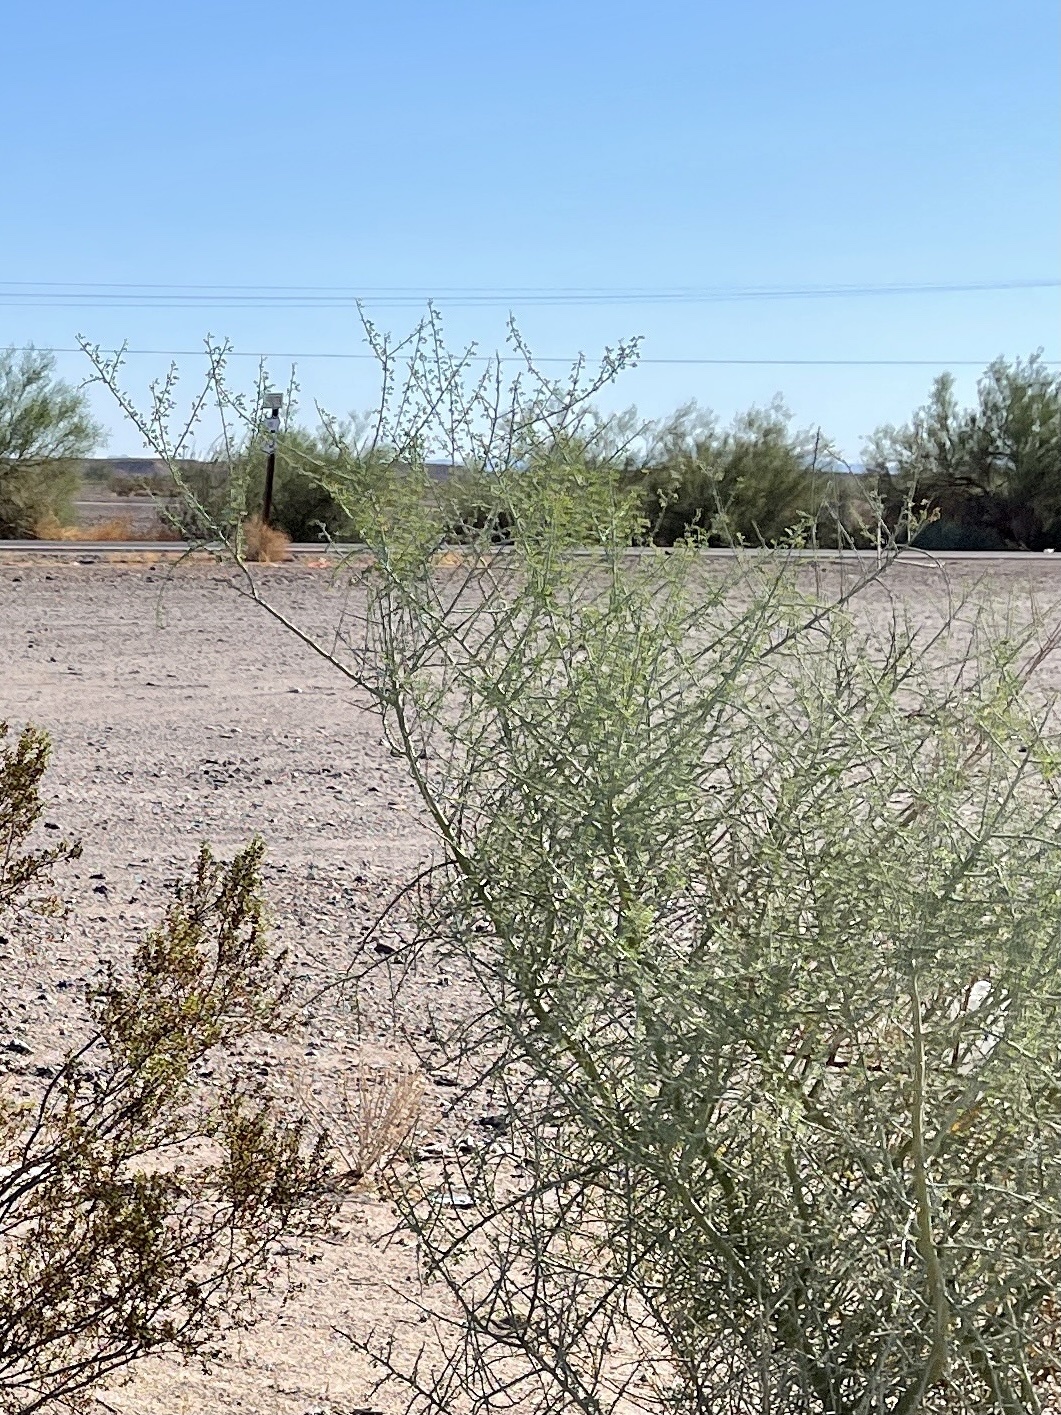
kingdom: Plantae
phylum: Tracheophyta
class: Magnoliopsida
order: Fabales
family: Fabaceae
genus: Parkinsonia
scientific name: Parkinsonia florida
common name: Blue paloverde
